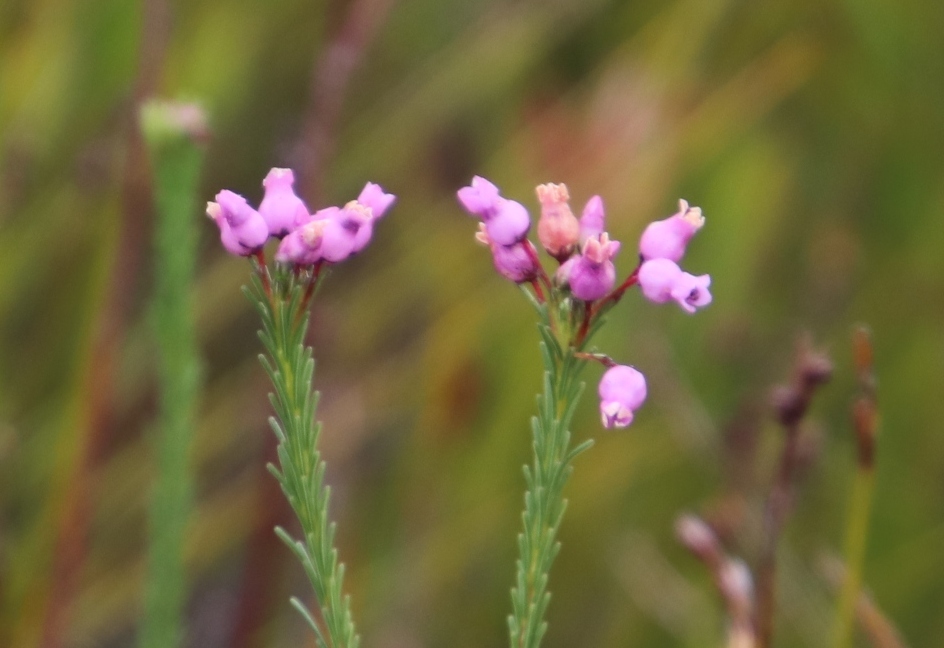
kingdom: Plantae
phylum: Tracheophyta
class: Magnoliopsida
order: Ericales
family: Ericaceae
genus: Erica
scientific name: Erica obliqua
